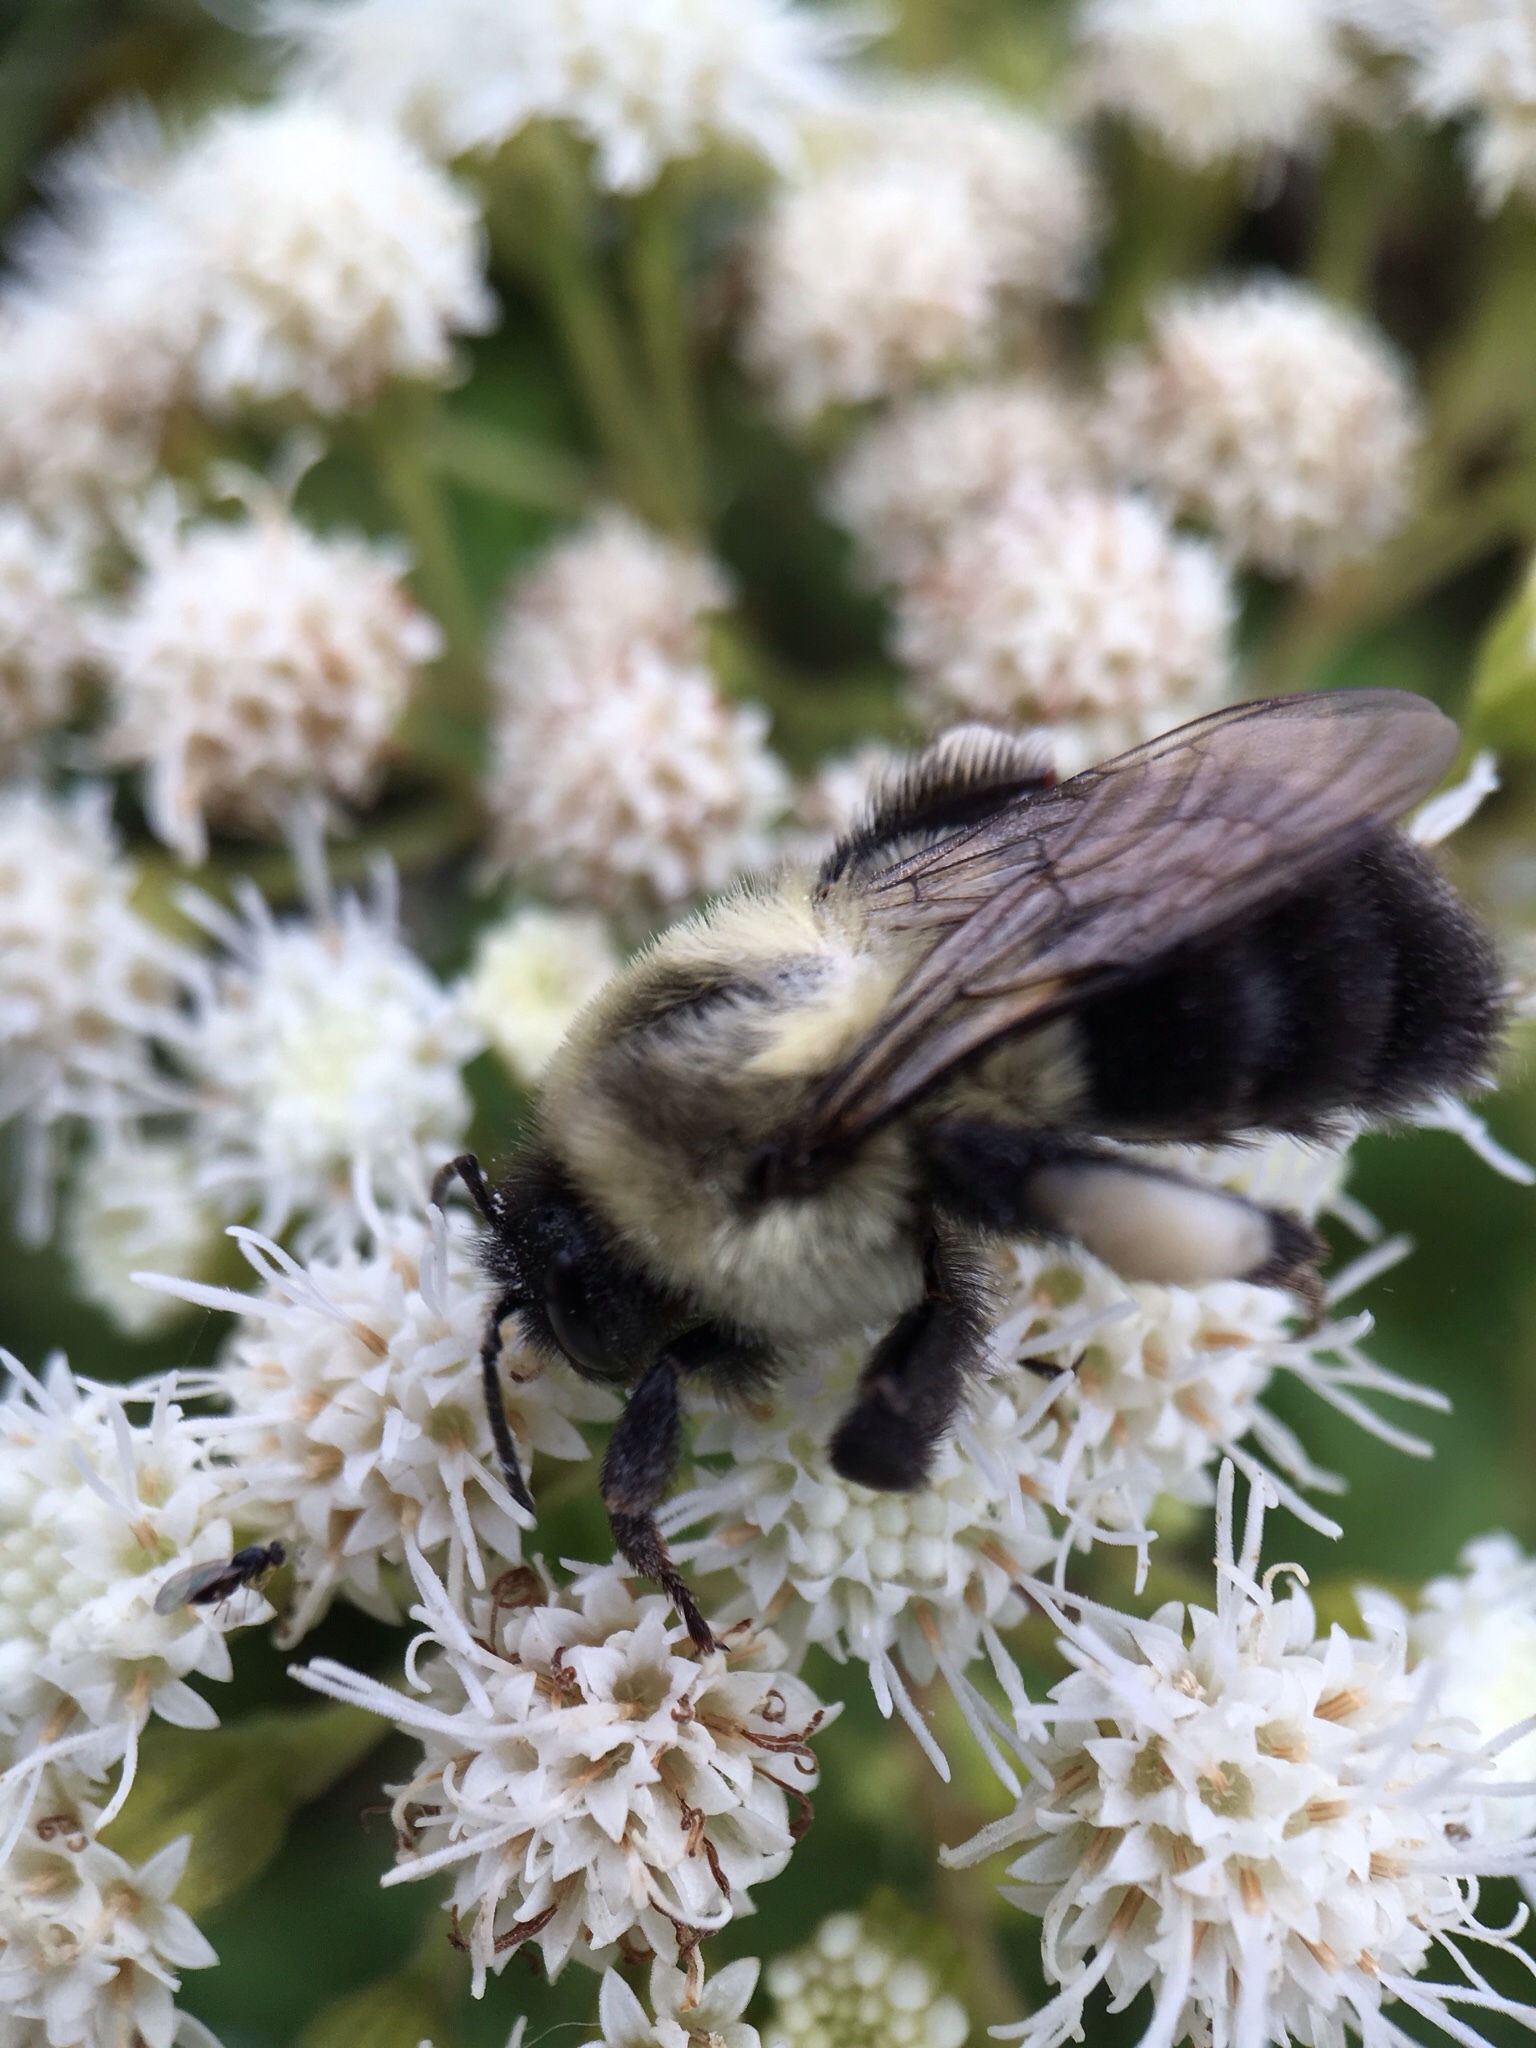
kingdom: Animalia
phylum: Arthropoda
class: Insecta
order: Hymenoptera
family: Apidae
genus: Bombus
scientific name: Bombus impatiens
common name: Common eastern bumble bee
